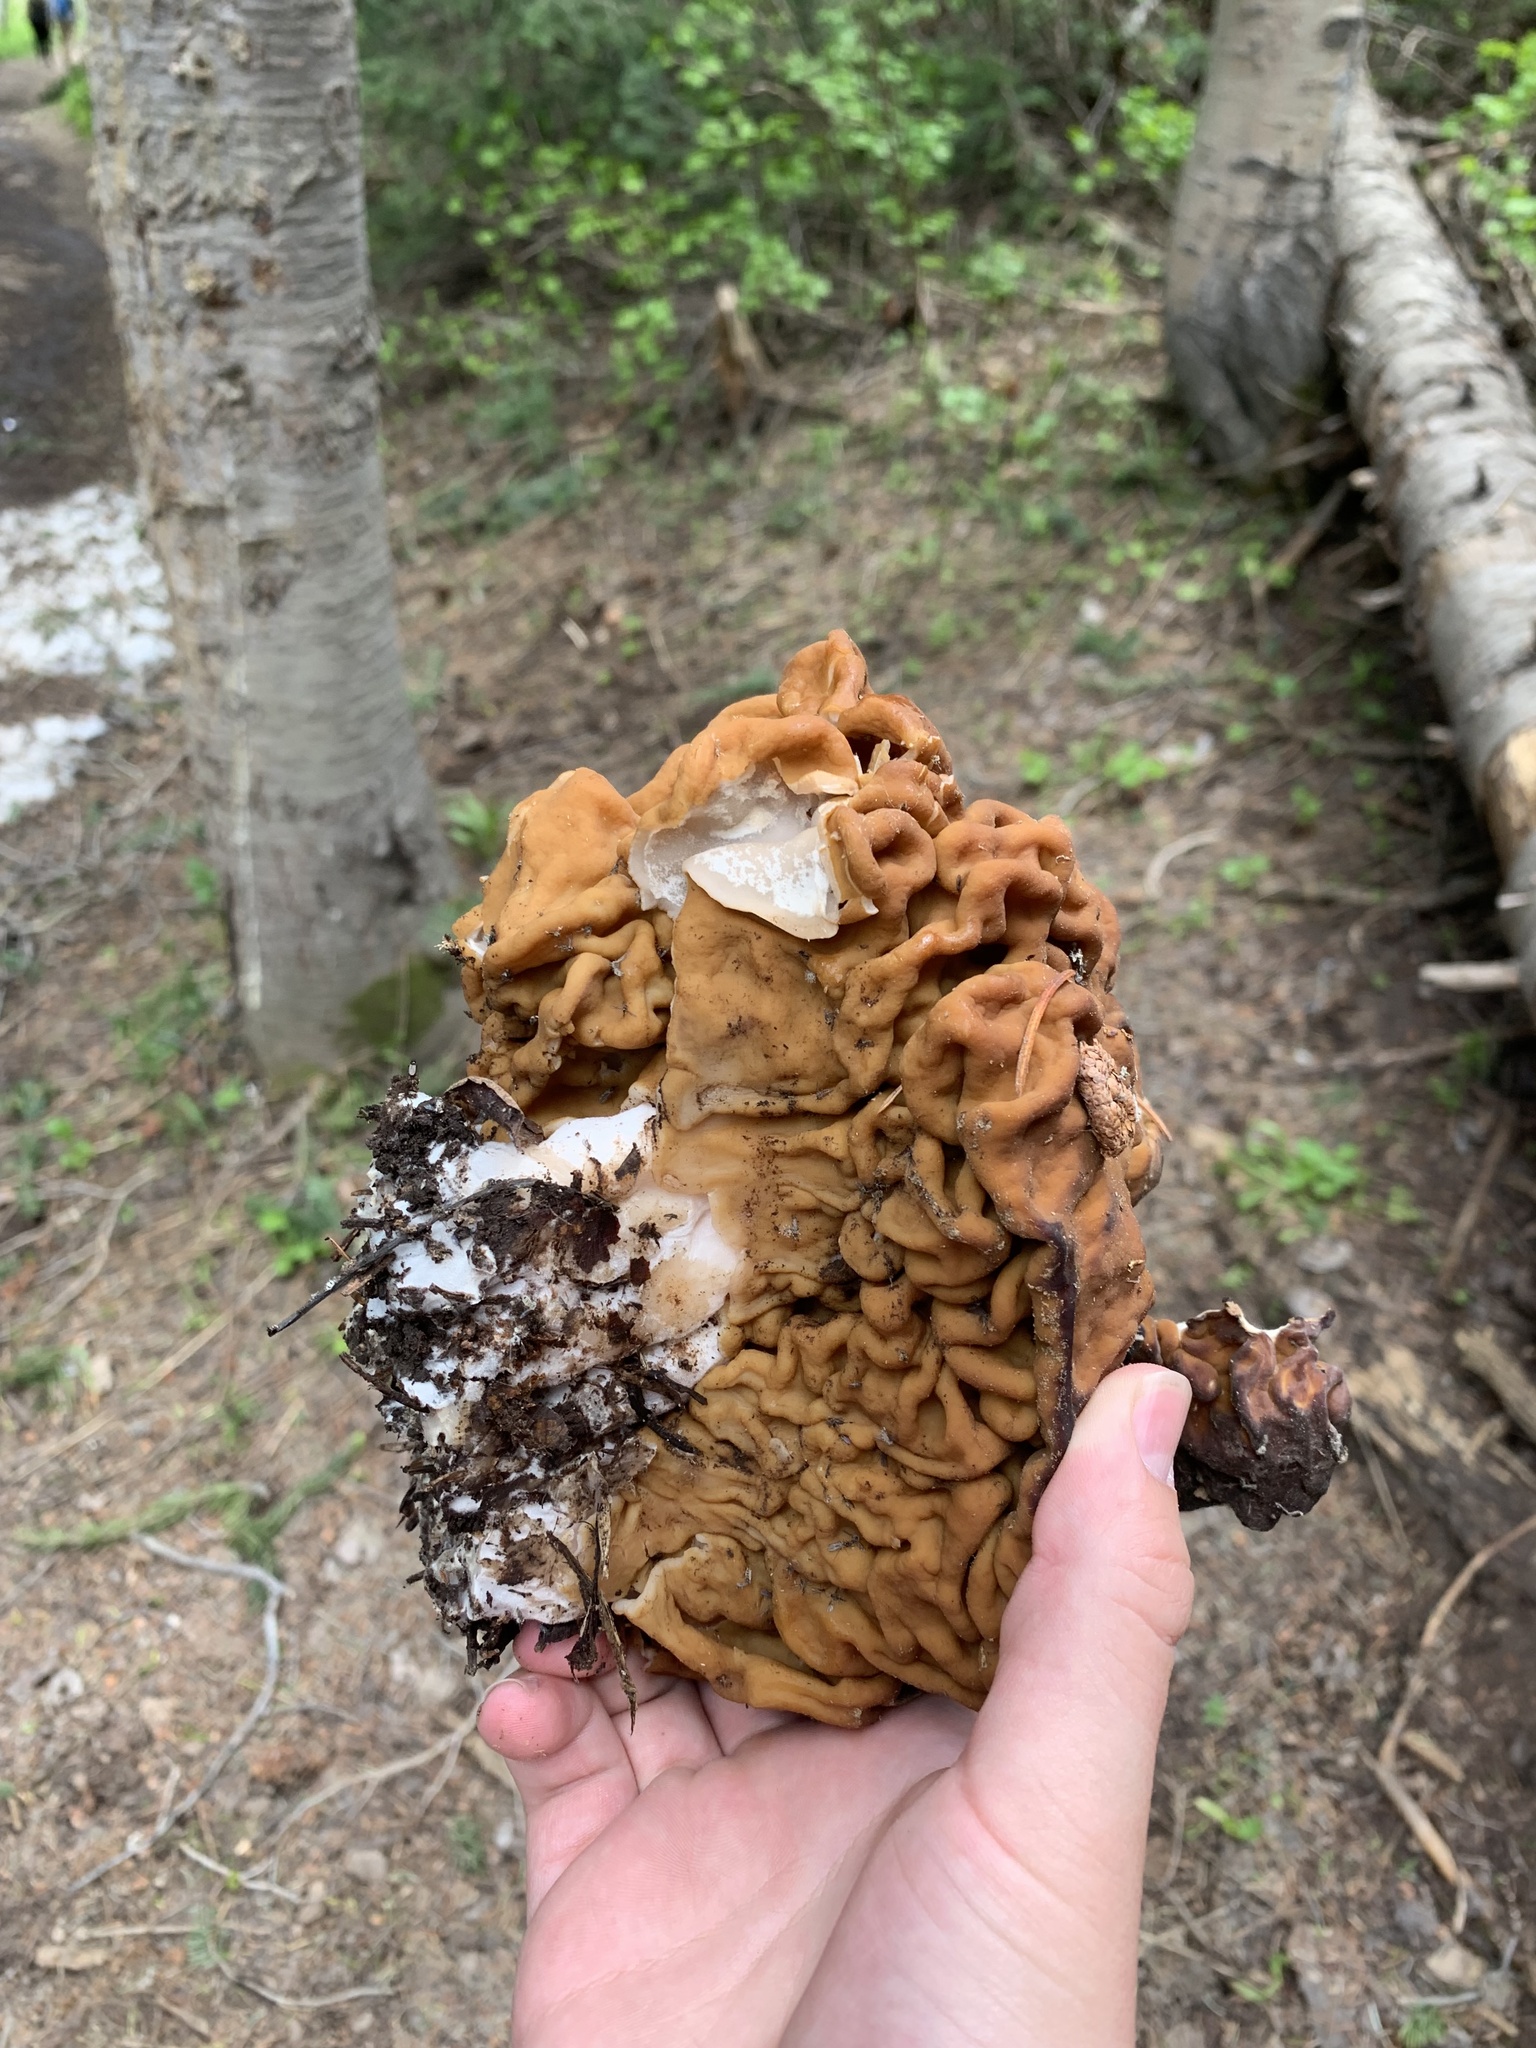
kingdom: Fungi
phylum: Ascomycota
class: Pezizomycetes
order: Pezizales
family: Discinaceae
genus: Discina
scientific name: Discina montana
